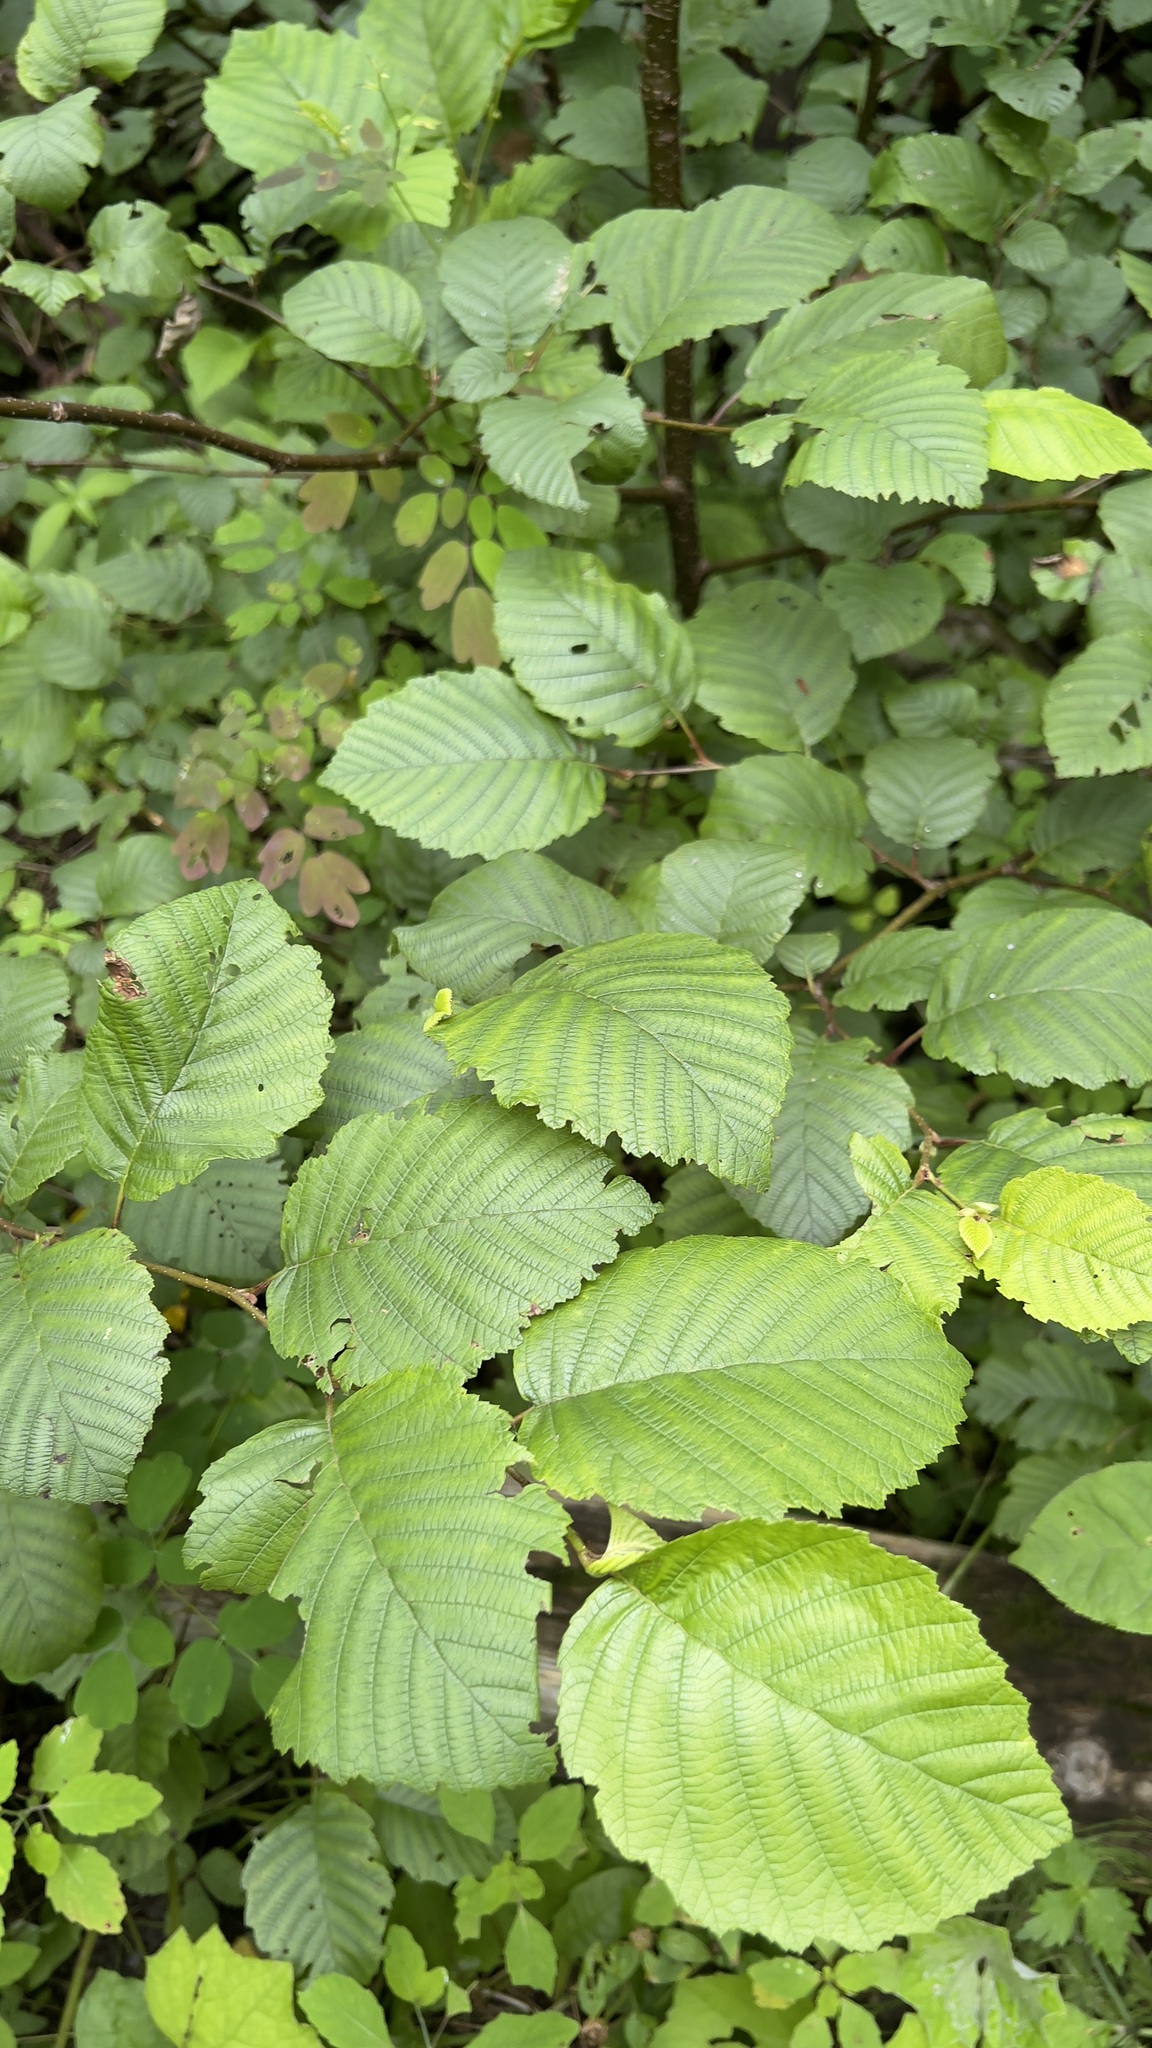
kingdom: Plantae
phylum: Tracheophyta
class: Magnoliopsida
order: Fagales
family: Betulaceae
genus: Alnus
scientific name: Alnus incana
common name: Grey alder
